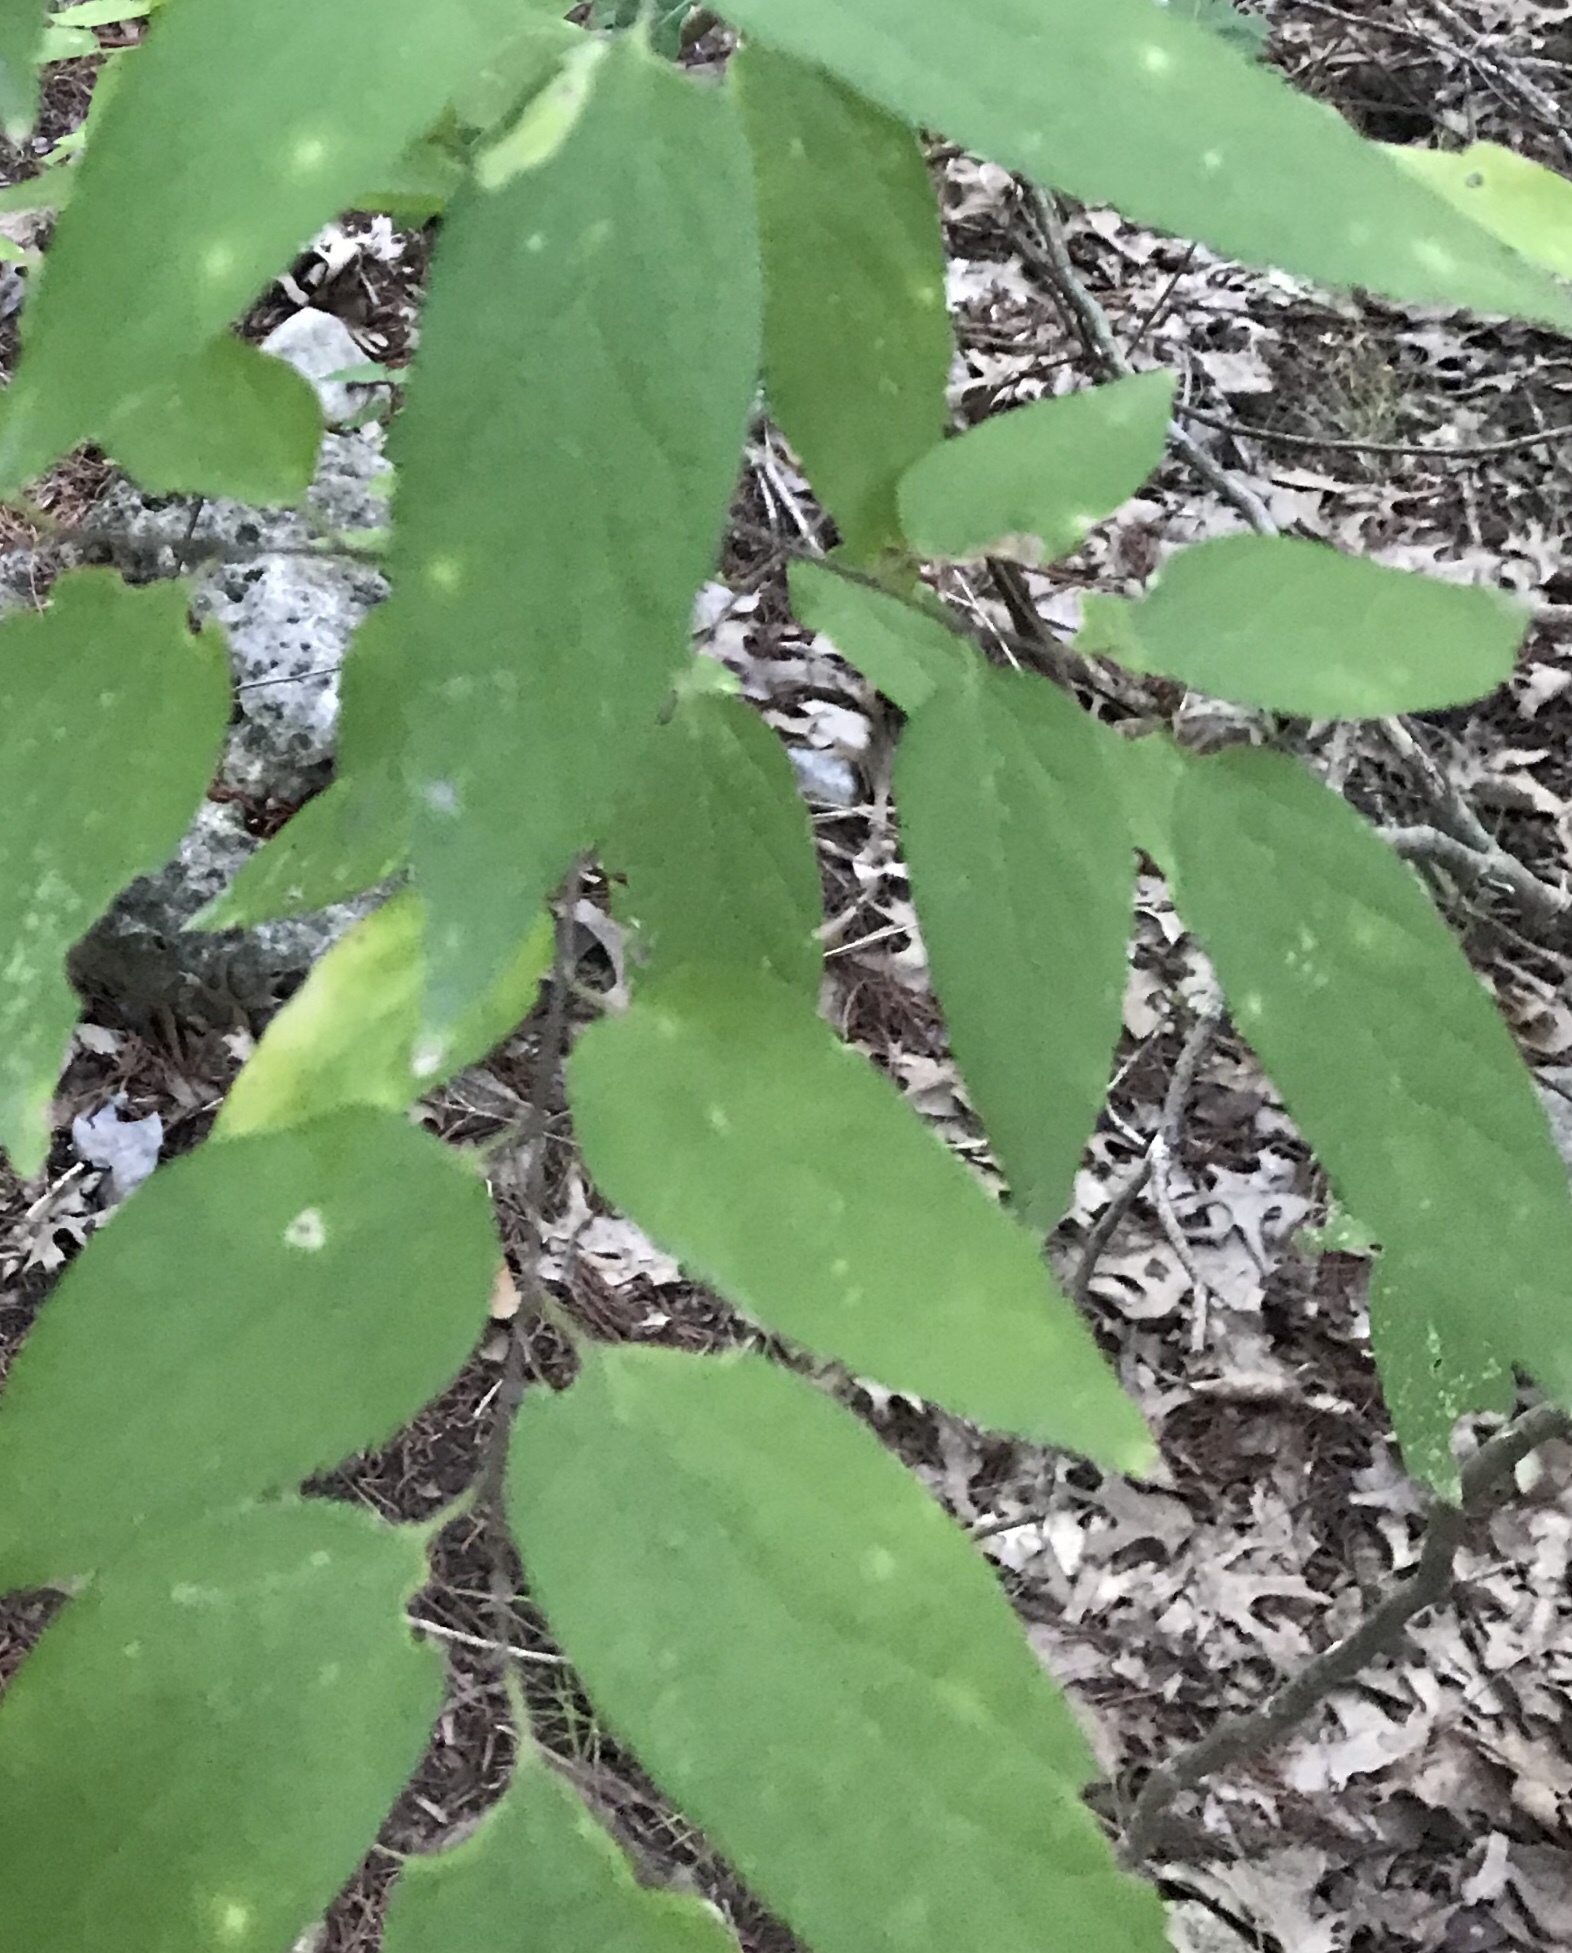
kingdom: Plantae
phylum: Tracheophyta
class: Magnoliopsida
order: Rosales
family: Cannabaceae
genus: Celtis
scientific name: Celtis laevigata
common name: Sugarberry
